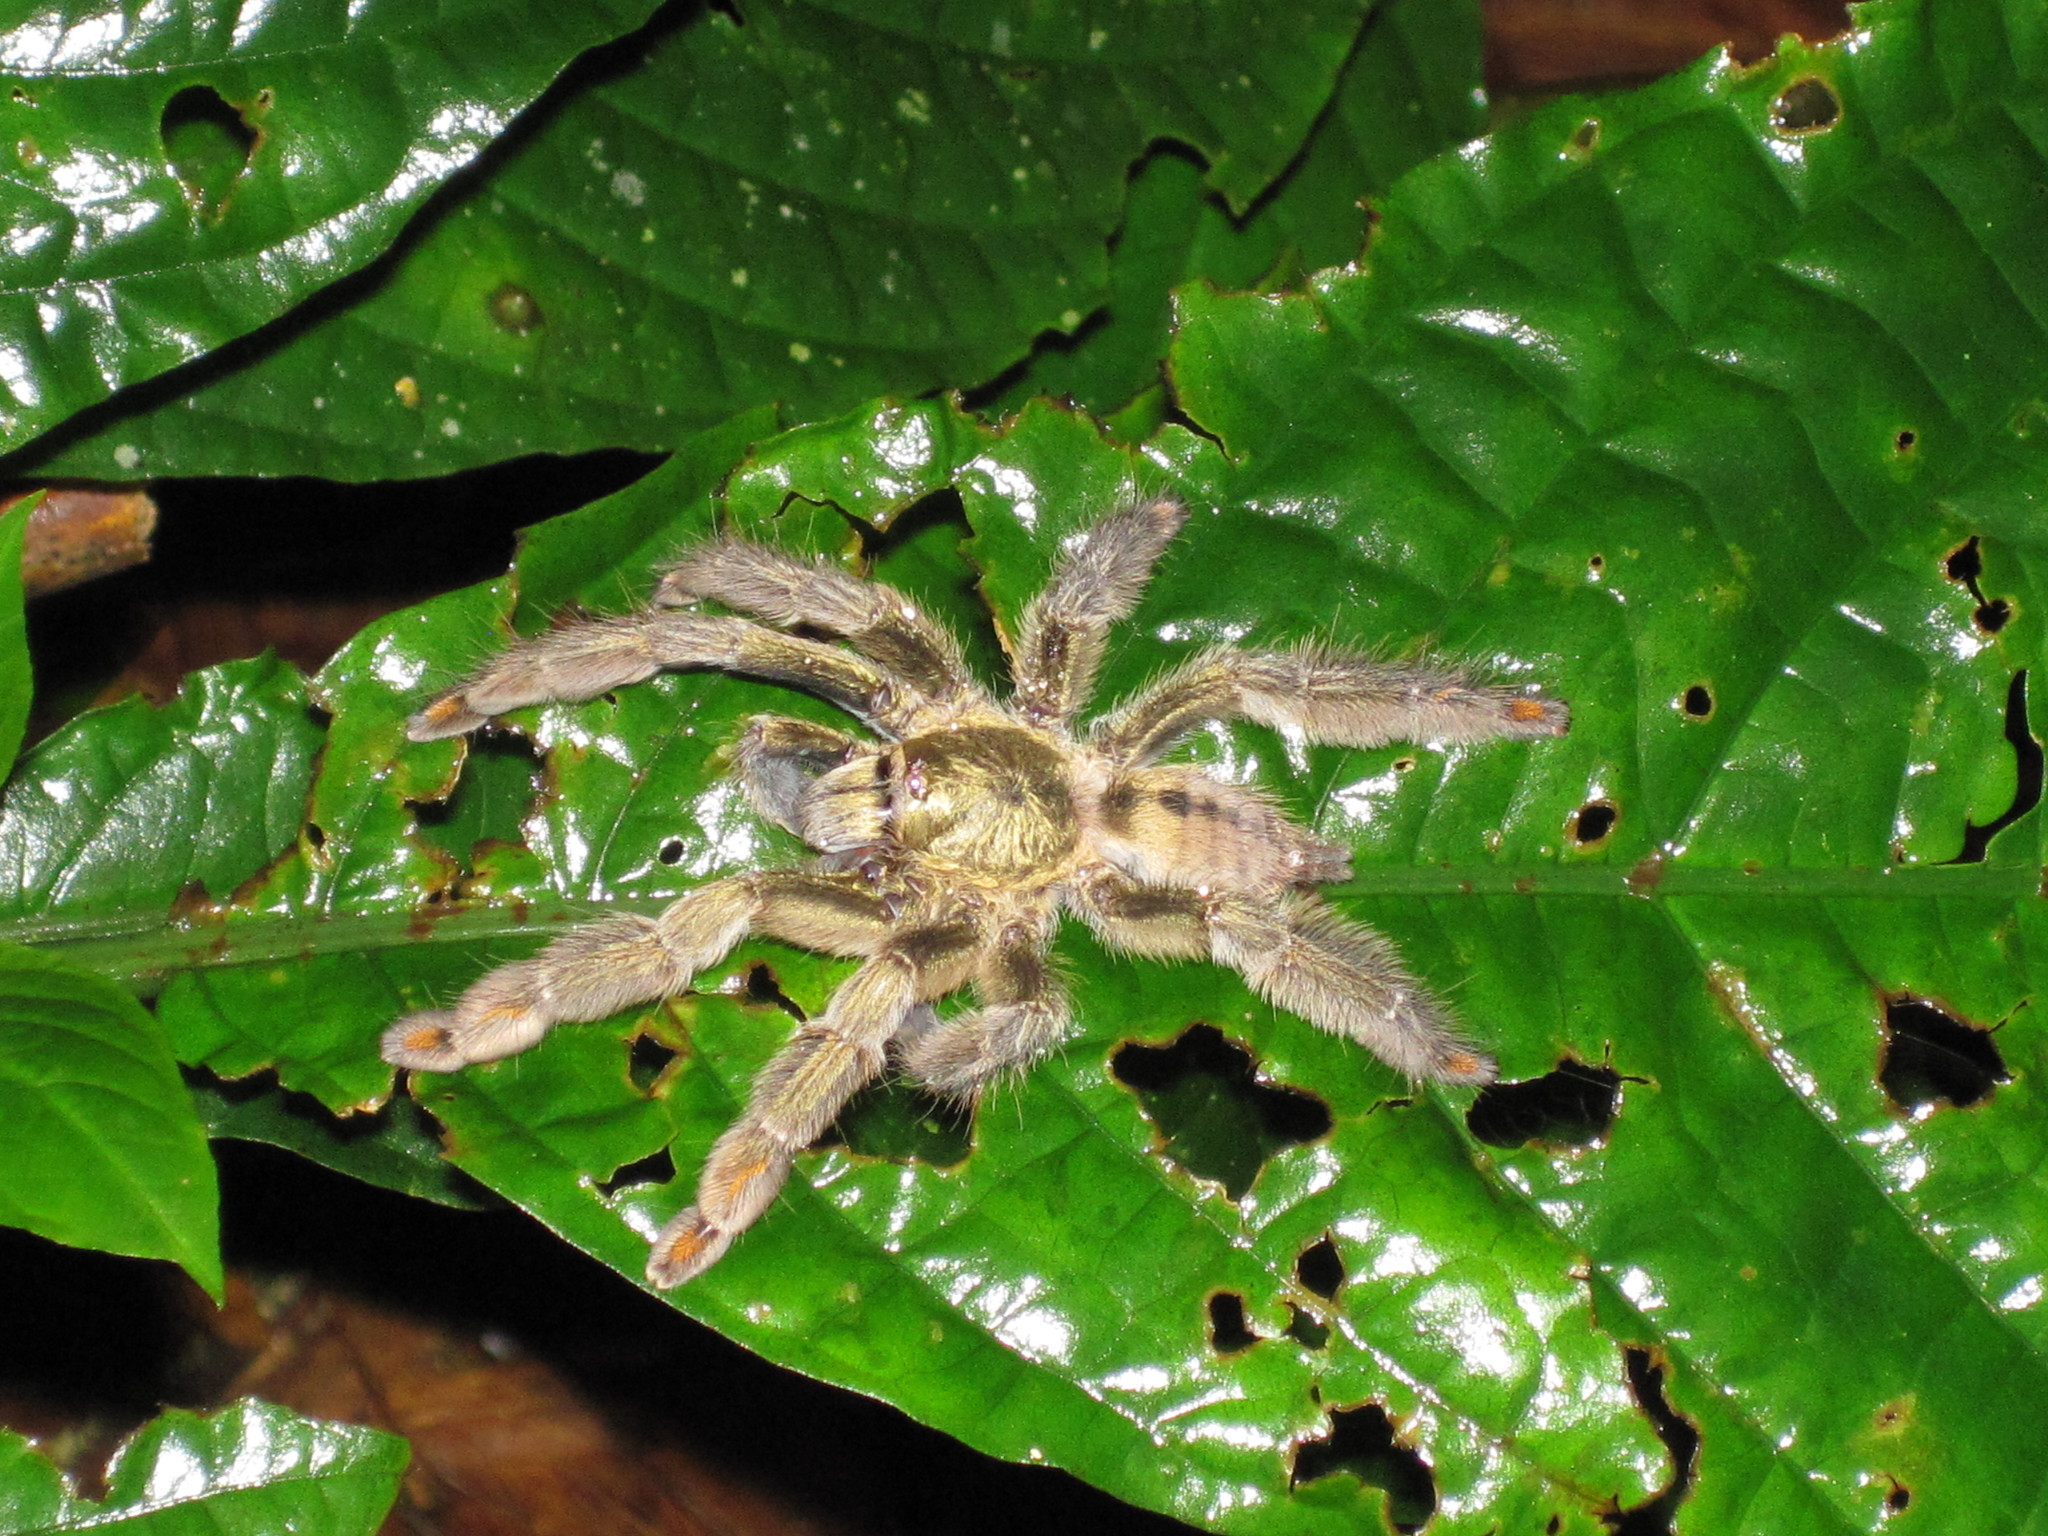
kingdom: Animalia
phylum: Arthropoda
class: Arachnida
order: Araneae
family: Theraphosidae
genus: Psalmopoeus
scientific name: Psalmopoeus cambridgei
